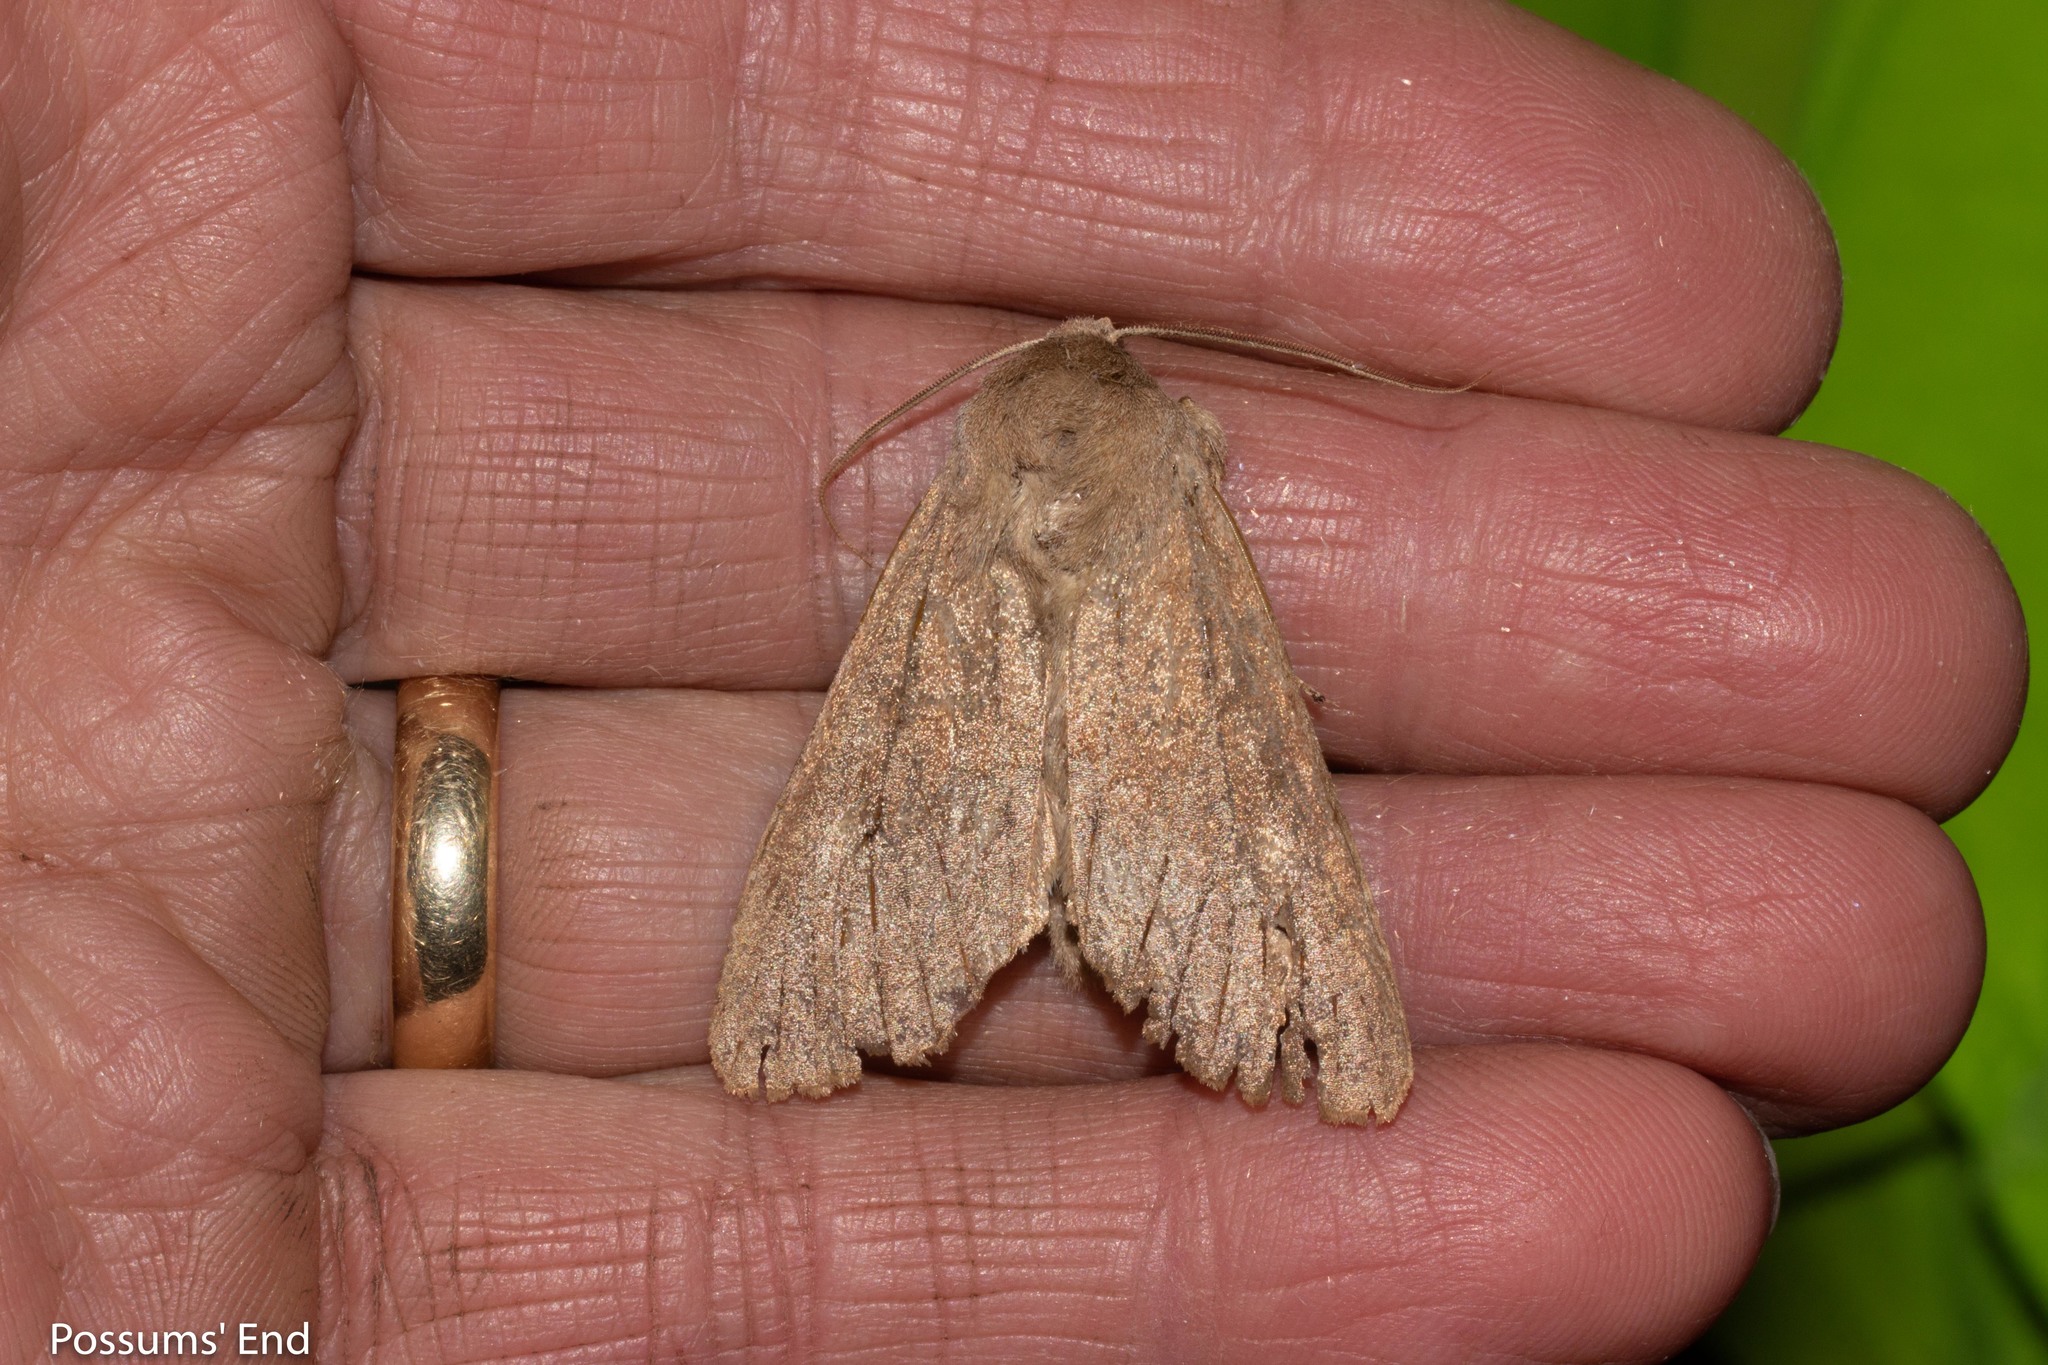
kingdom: Animalia
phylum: Arthropoda
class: Insecta
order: Lepidoptera
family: Noctuidae
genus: Ichneutica
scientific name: Ichneutica nullifera
